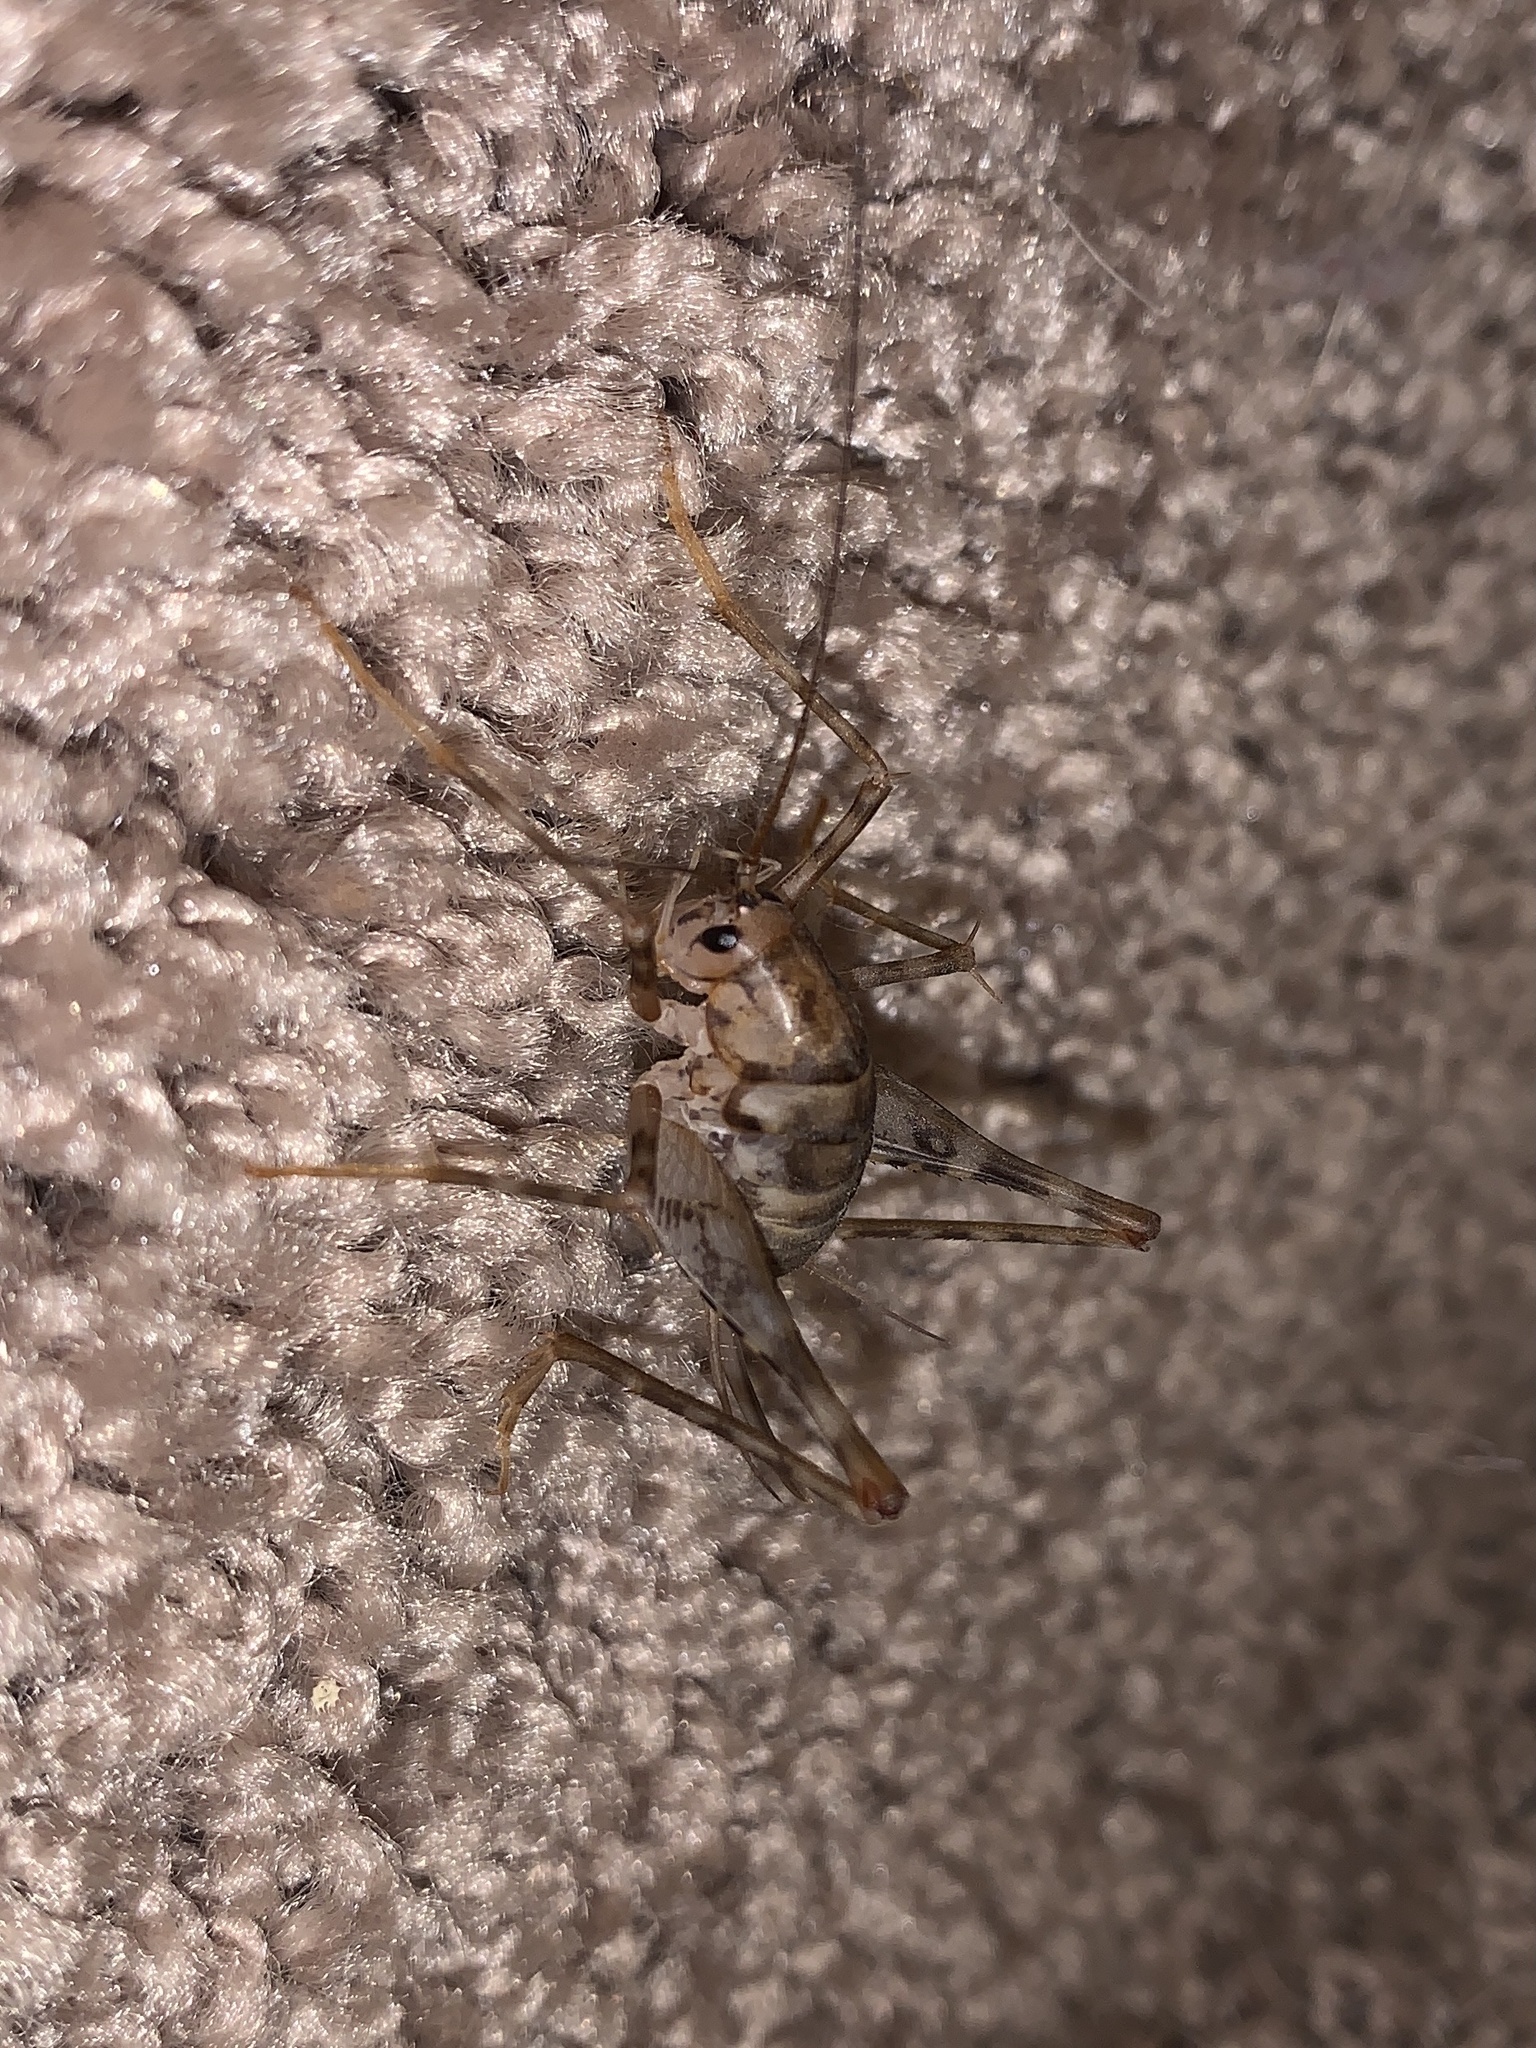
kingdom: Animalia
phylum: Arthropoda
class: Insecta
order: Orthoptera
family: Rhaphidophoridae
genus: Tachycines
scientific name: Tachycines asynamorus
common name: Greenhouse camel cricket
